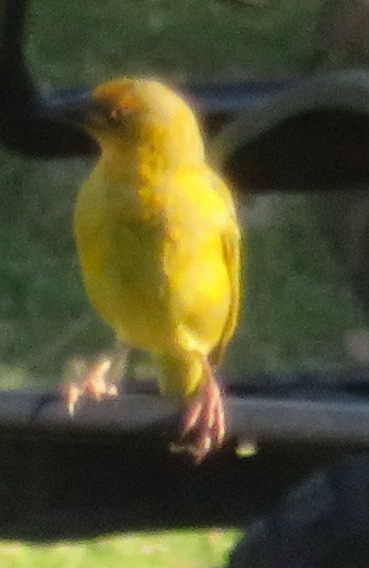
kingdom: Animalia
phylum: Chordata
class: Aves
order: Passeriformes
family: Ploceidae
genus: Ploceus
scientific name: Ploceus capensis
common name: Cape weaver
